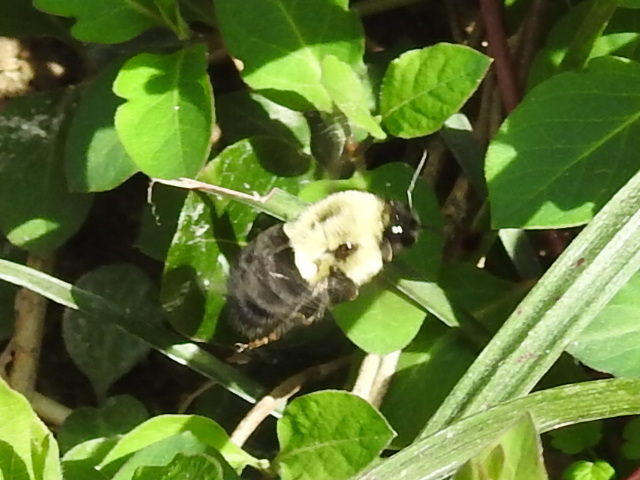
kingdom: Animalia
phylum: Arthropoda
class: Insecta
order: Hymenoptera
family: Apidae
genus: Bombus
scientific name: Bombus impatiens
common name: Common eastern bumble bee
